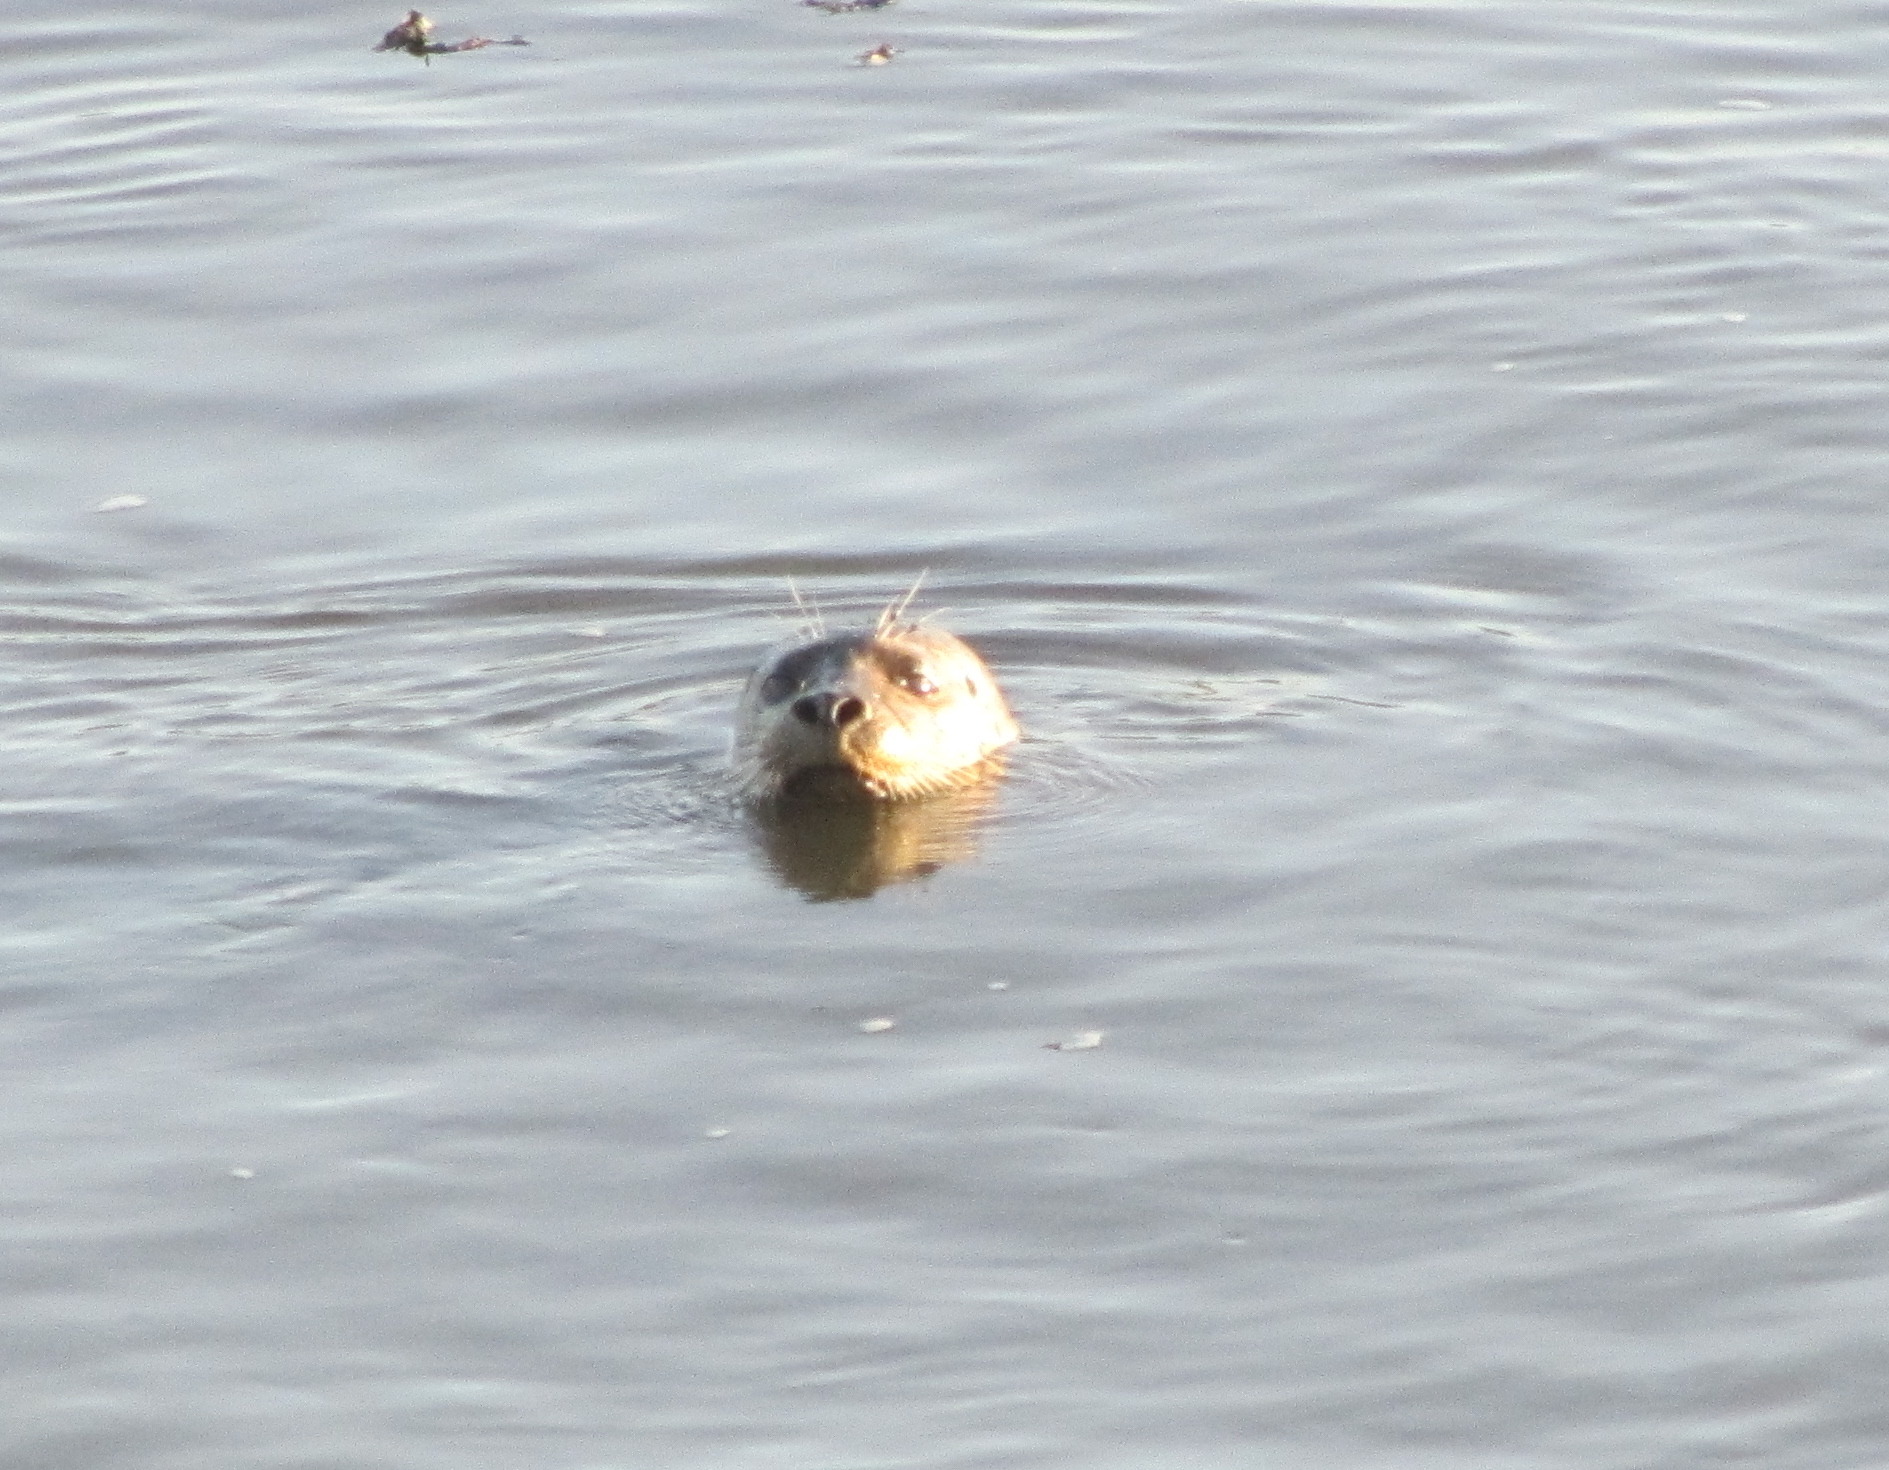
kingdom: Animalia
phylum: Chordata
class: Mammalia
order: Carnivora
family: Phocidae
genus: Phoca
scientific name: Phoca vitulina
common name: Harbor seal
